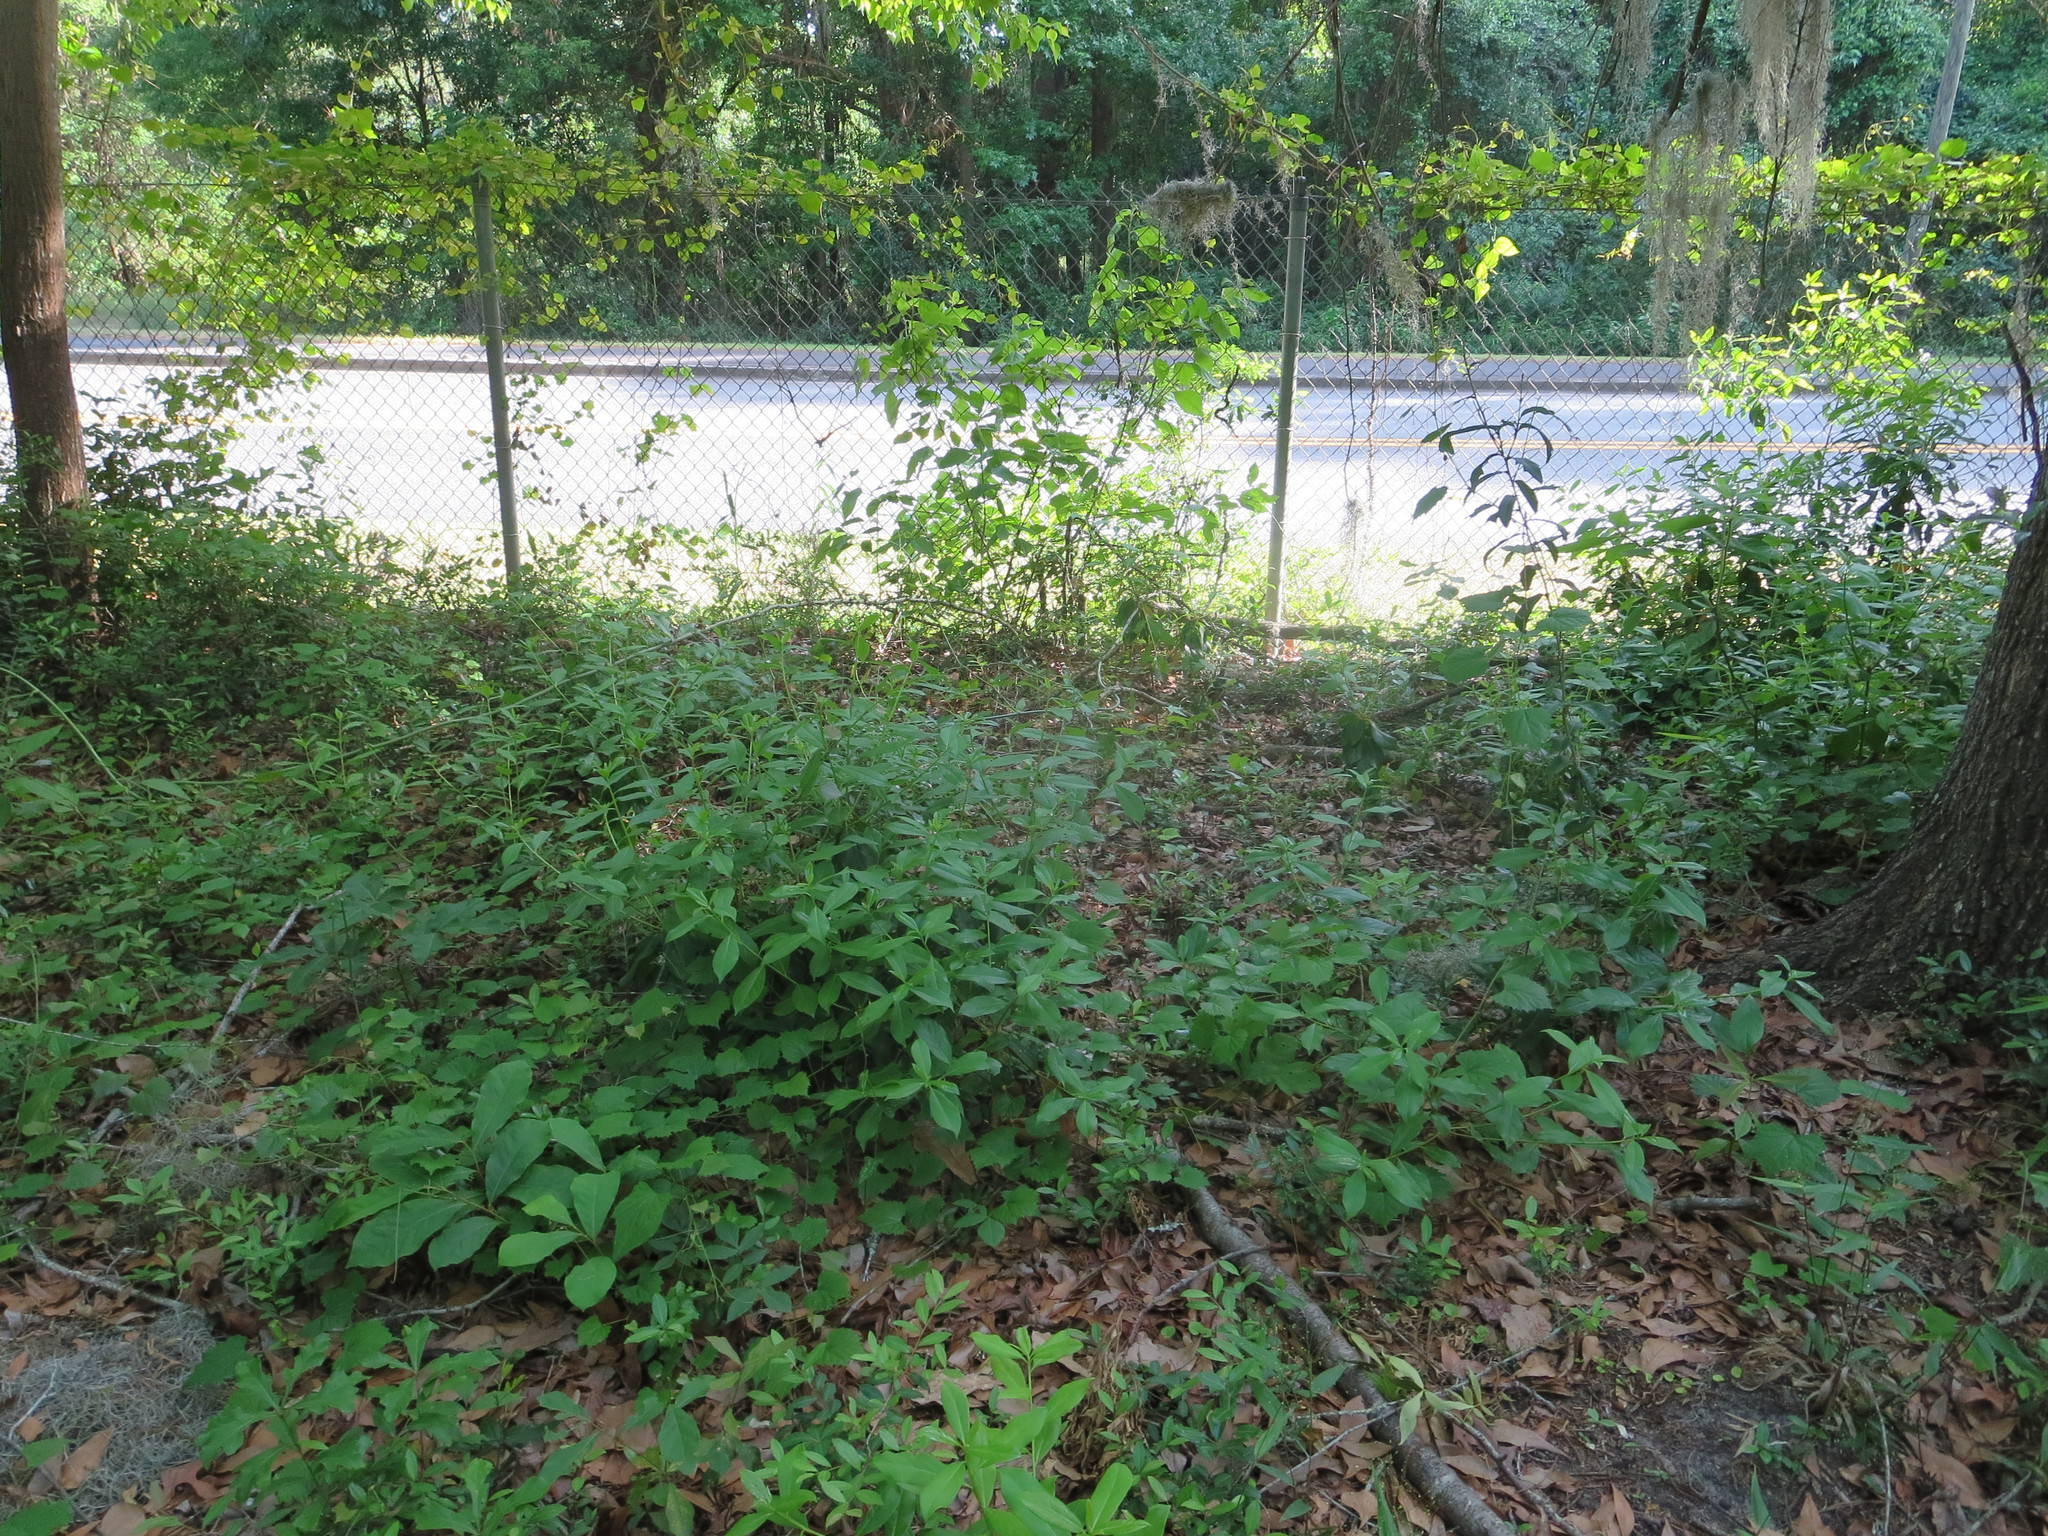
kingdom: Plantae
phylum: Tracheophyta
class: Magnoliopsida
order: Magnoliales
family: Annonaceae
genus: Asimina
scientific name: Asimina parviflora
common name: Dwarf pawpaw
